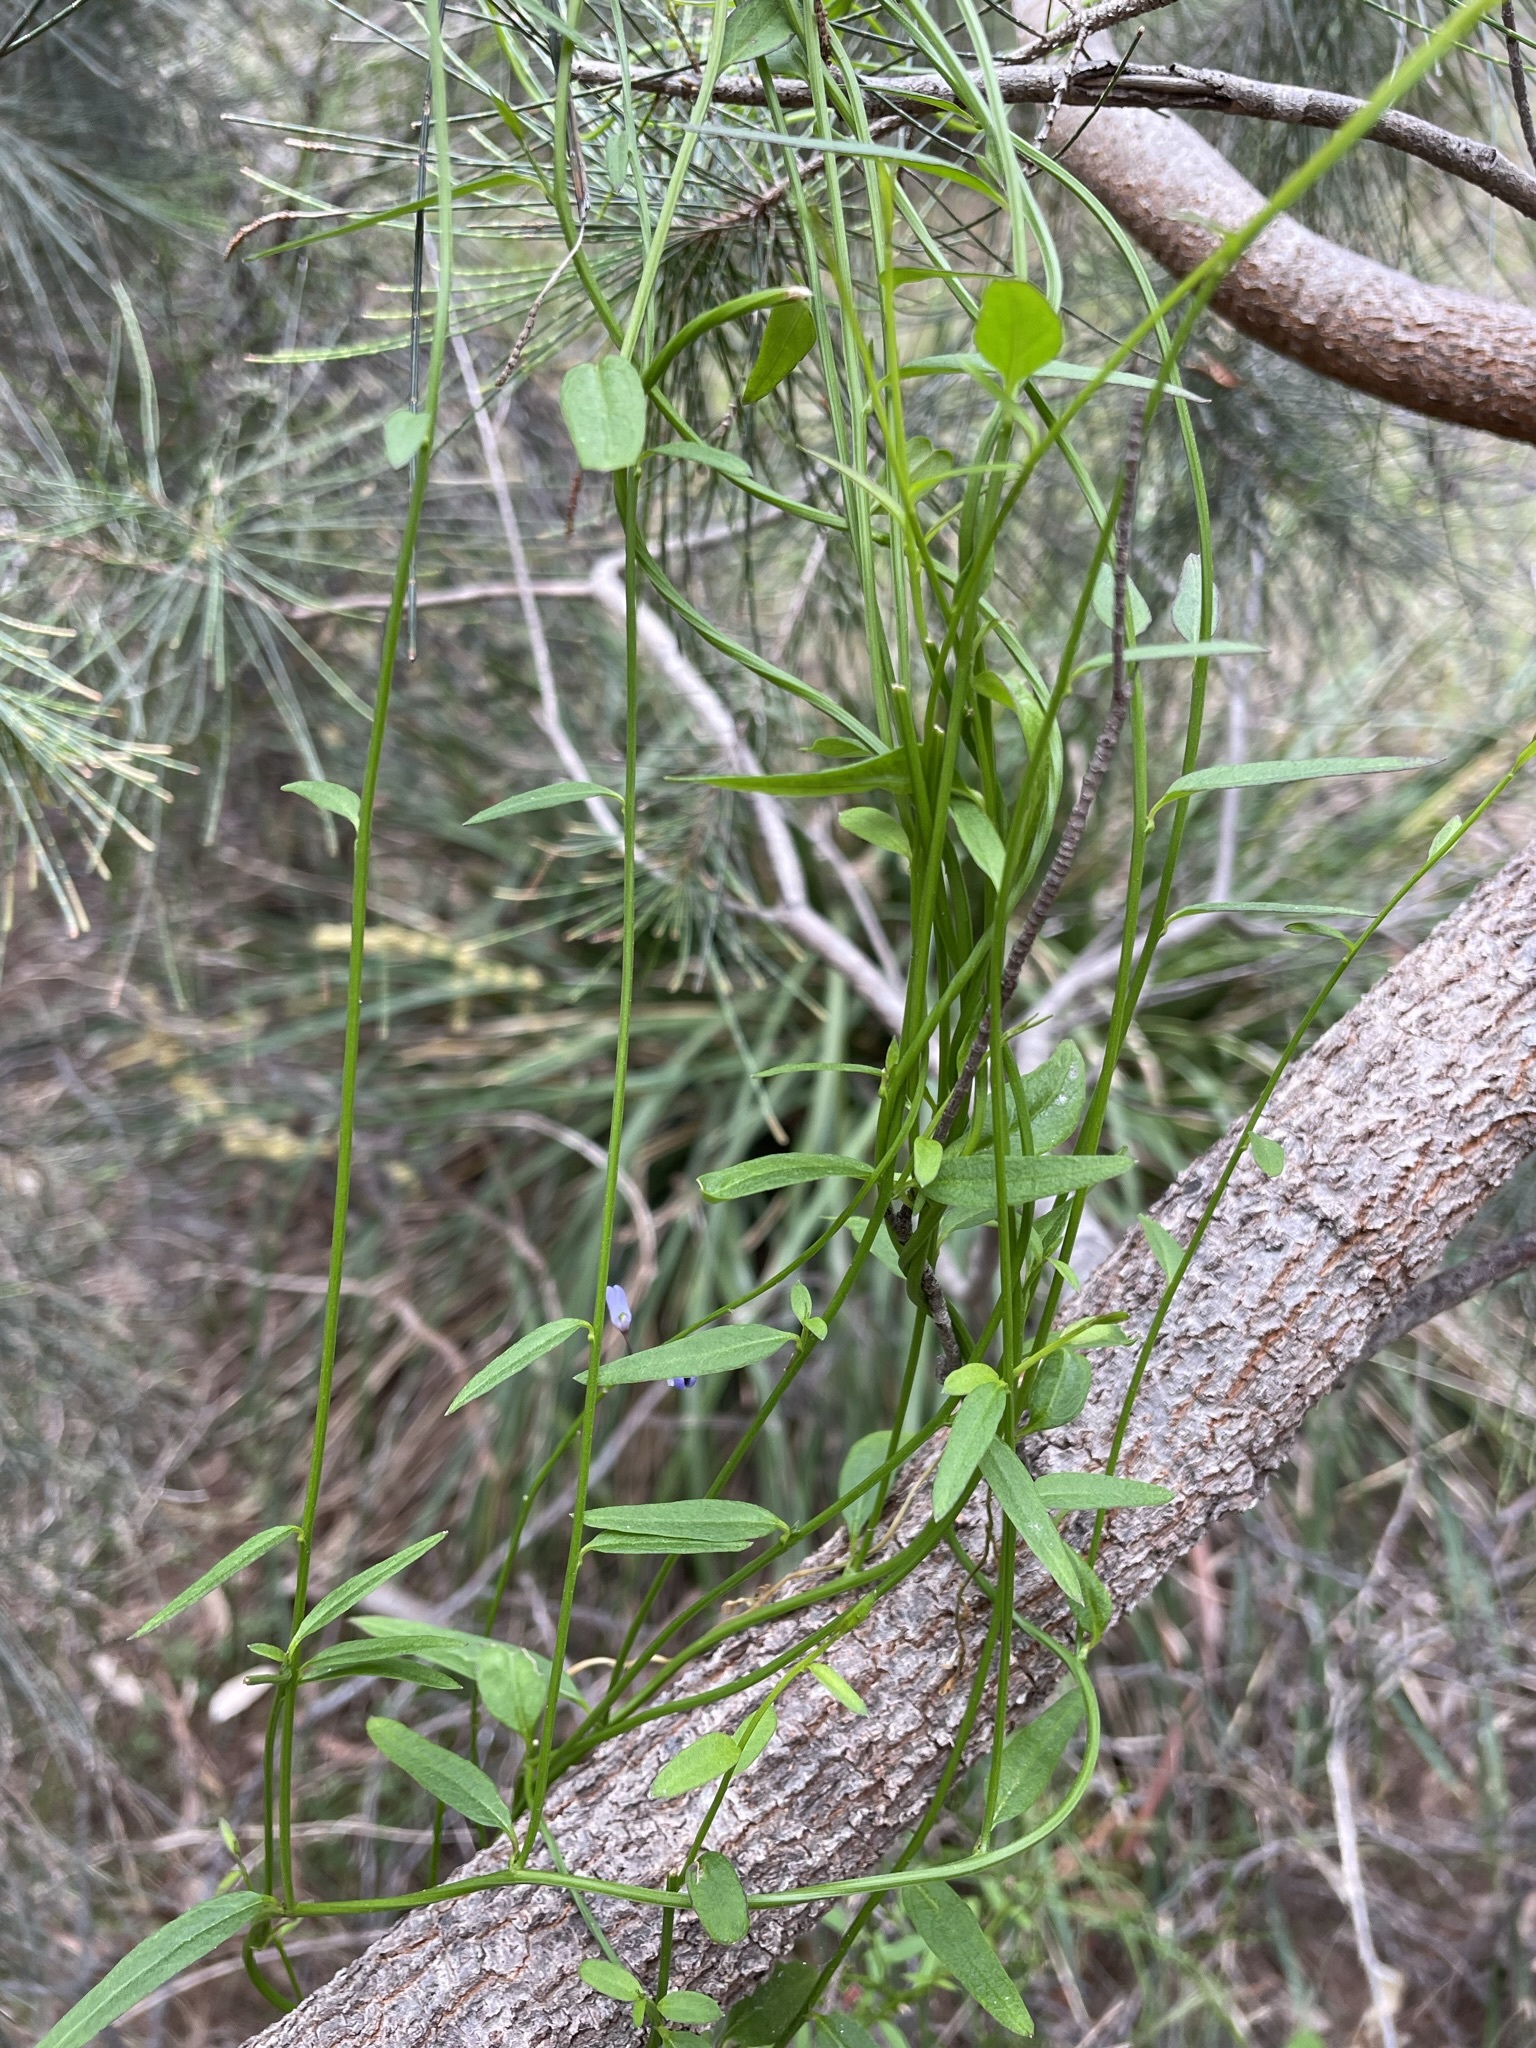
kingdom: Plantae
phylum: Tracheophyta
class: Magnoliopsida
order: Fabales
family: Polygalaceae
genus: Comesperma
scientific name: Comesperma volubile
